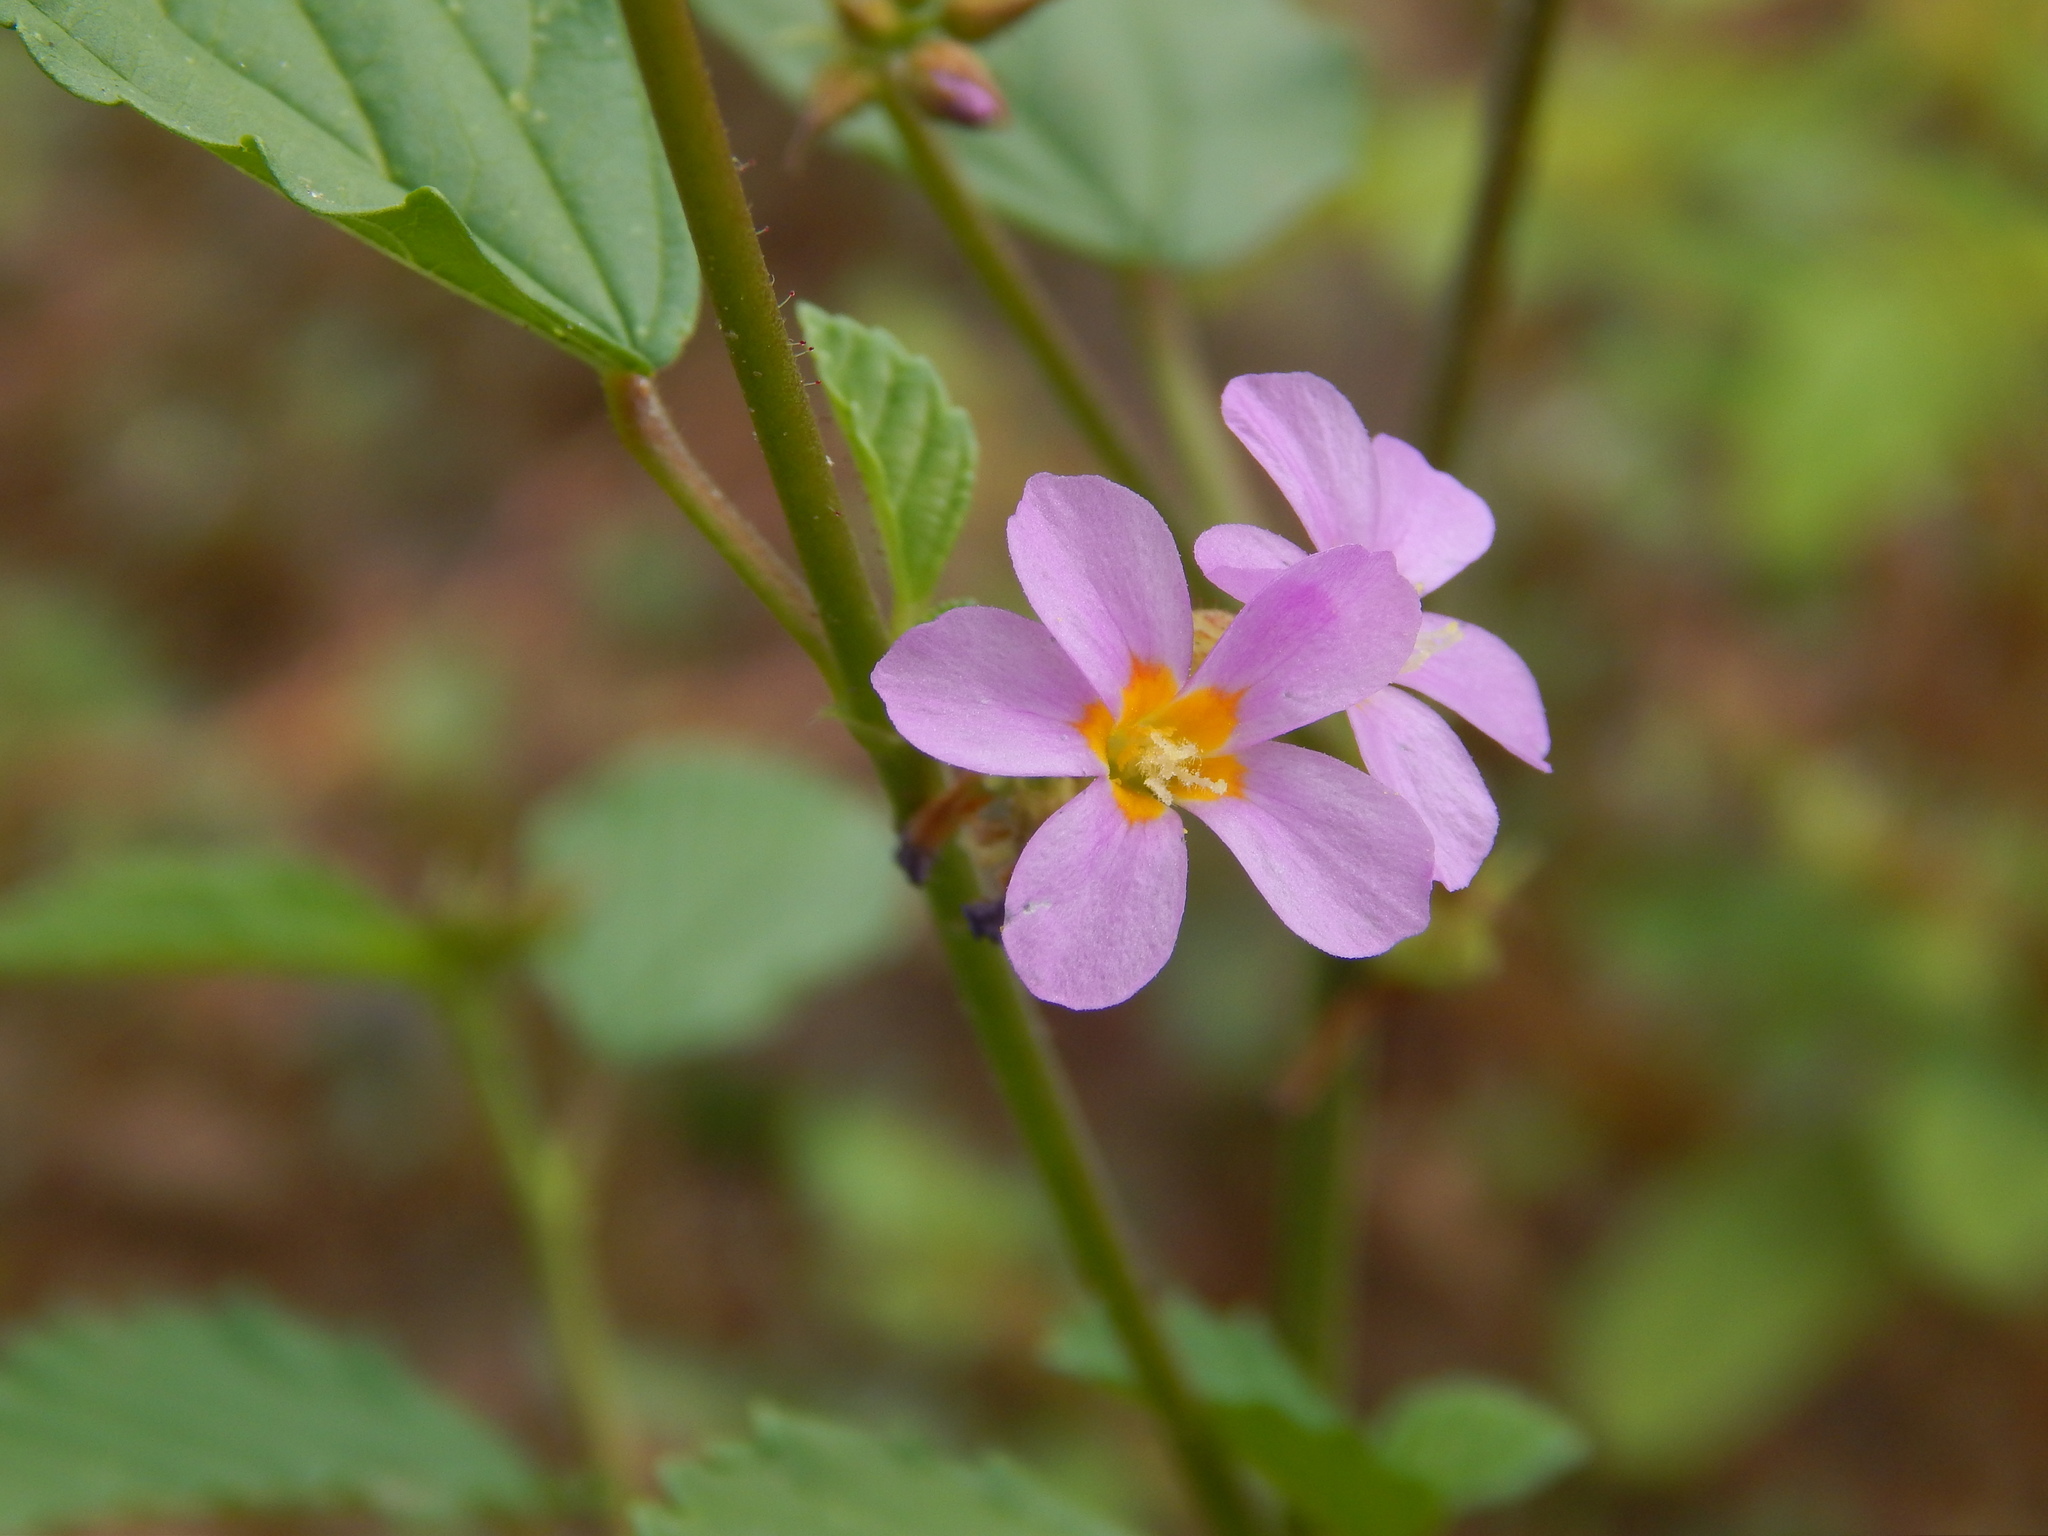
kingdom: Plantae
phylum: Tracheophyta
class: Magnoliopsida
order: Malvales
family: Malvaceae
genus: Melochia
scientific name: Melochia pyramidata
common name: Pyramidflower
